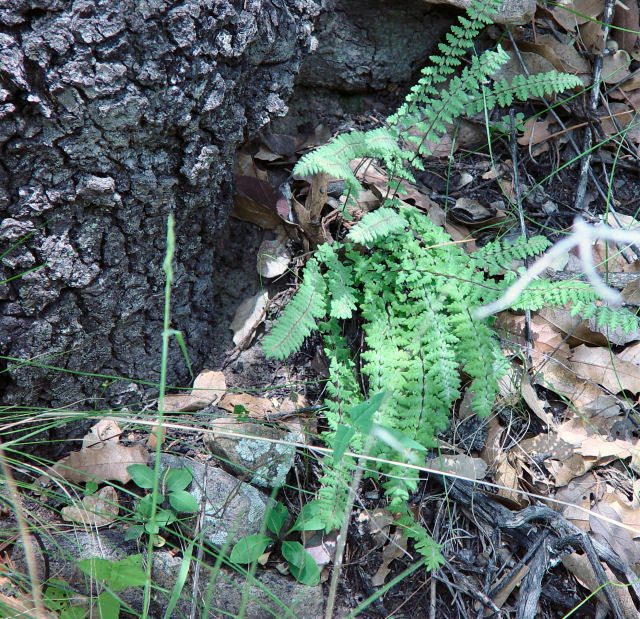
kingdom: Plantae
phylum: Tracheophyta
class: Polypodiopsida
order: Polypodiales
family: Pteridaceae
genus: Myriopteris
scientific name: Myriopteris aurea
